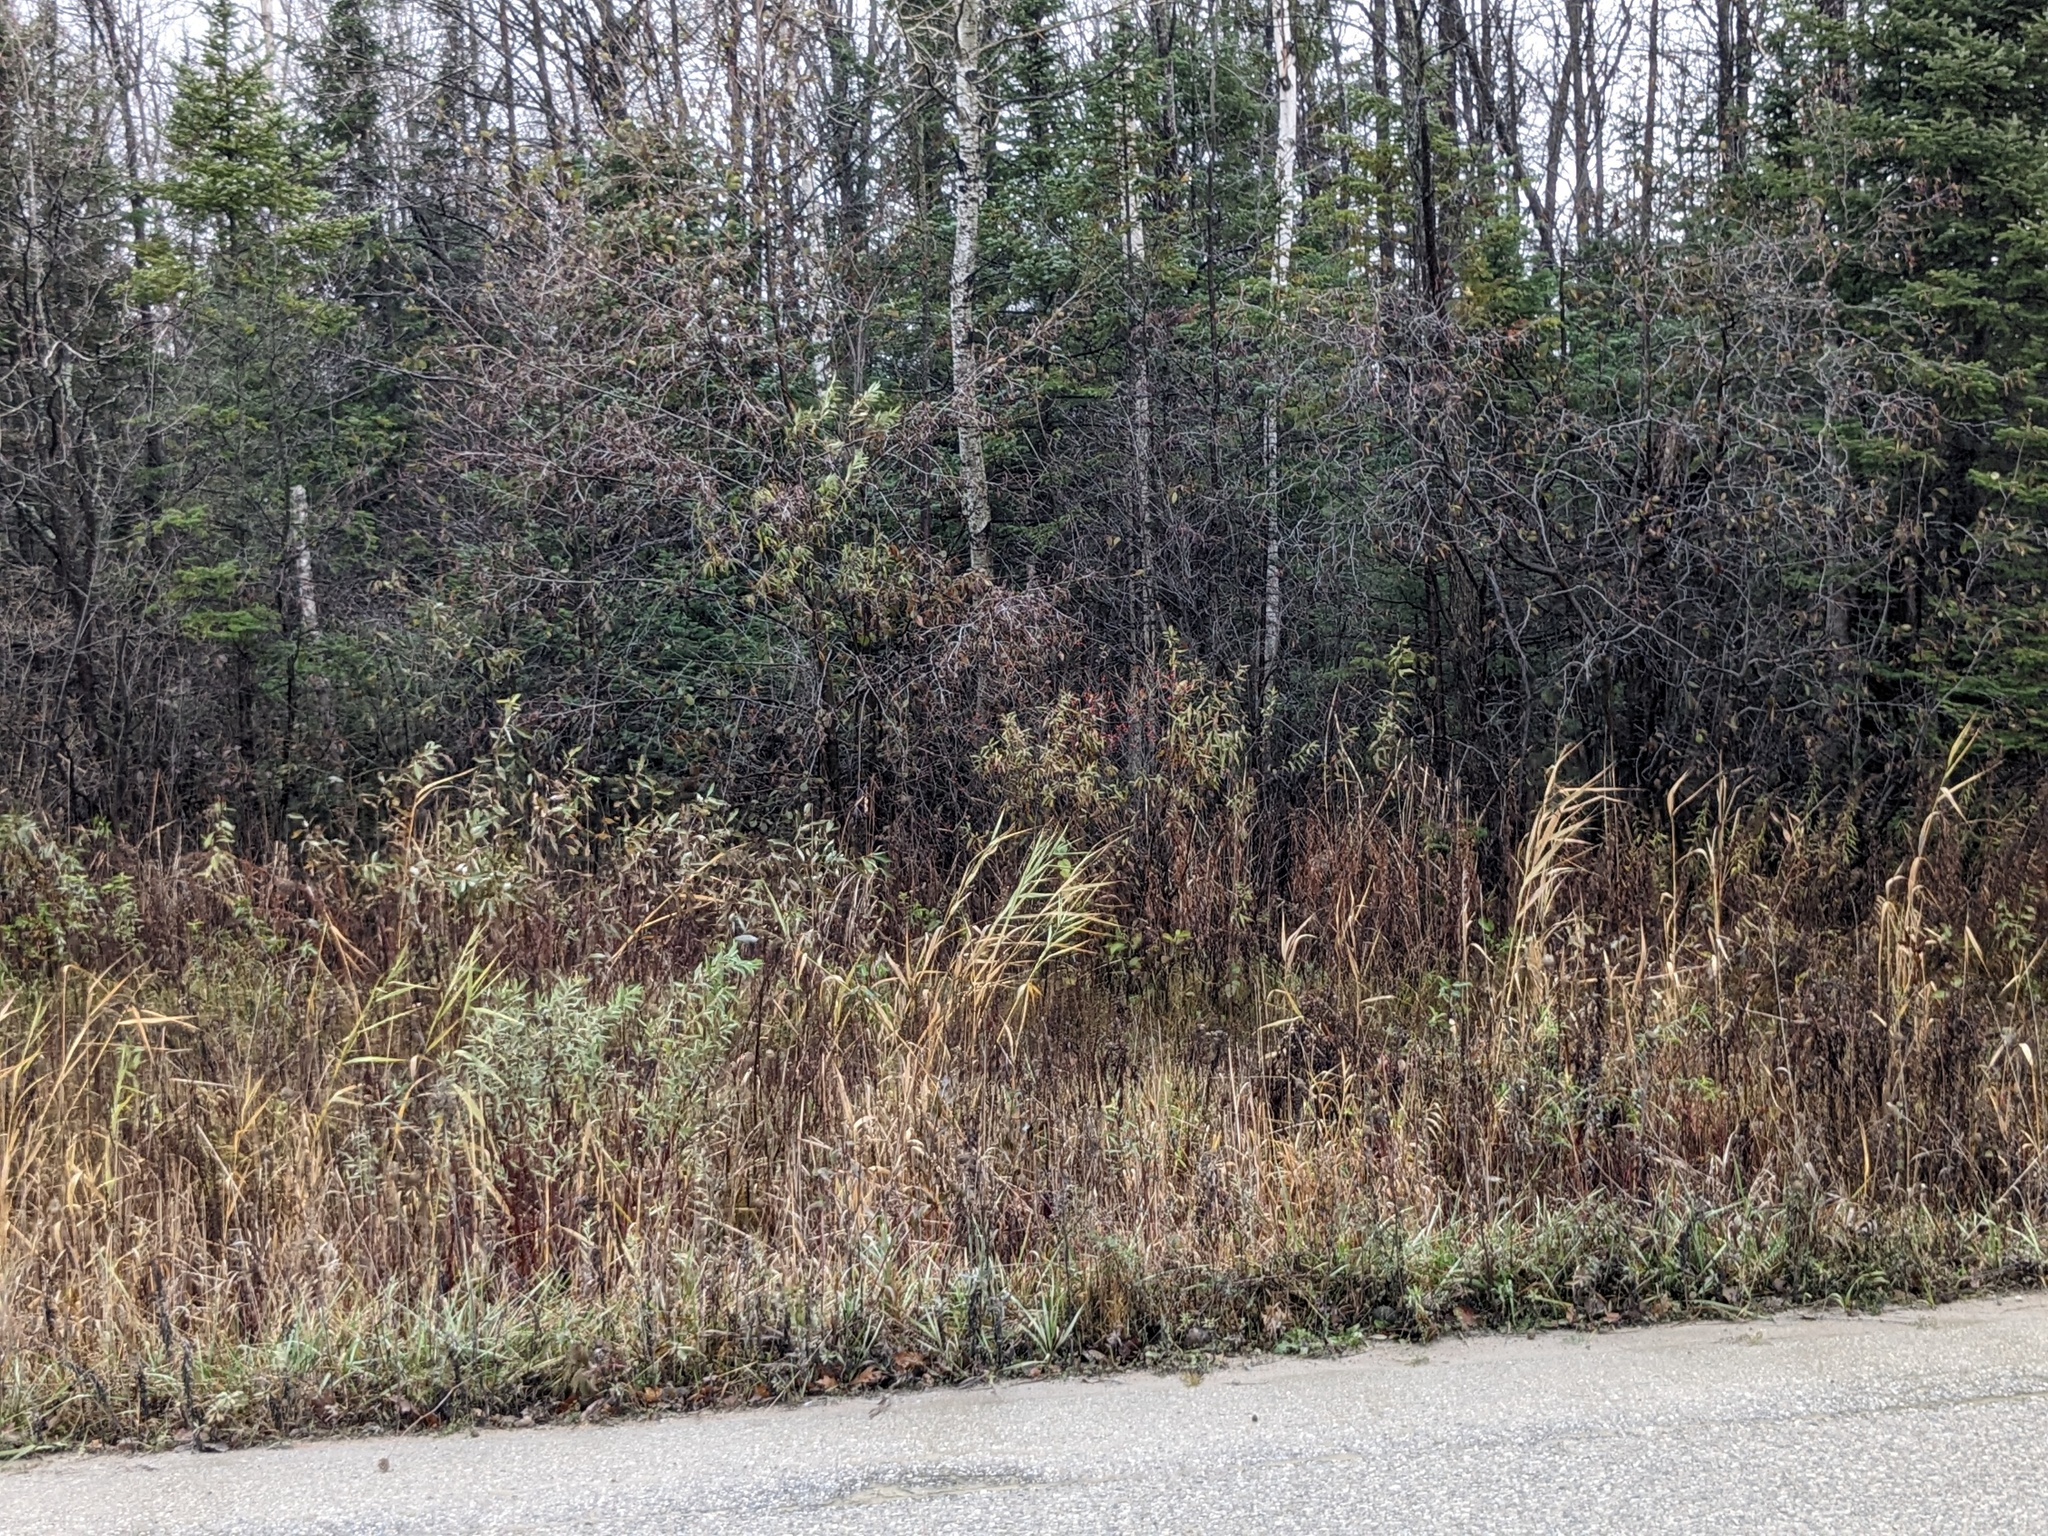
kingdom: Plantae
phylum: Tracheophyta
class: Liliopsida
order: Poales
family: Poaceae
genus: Phragmites
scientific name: Phragmites australis
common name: Common reed
